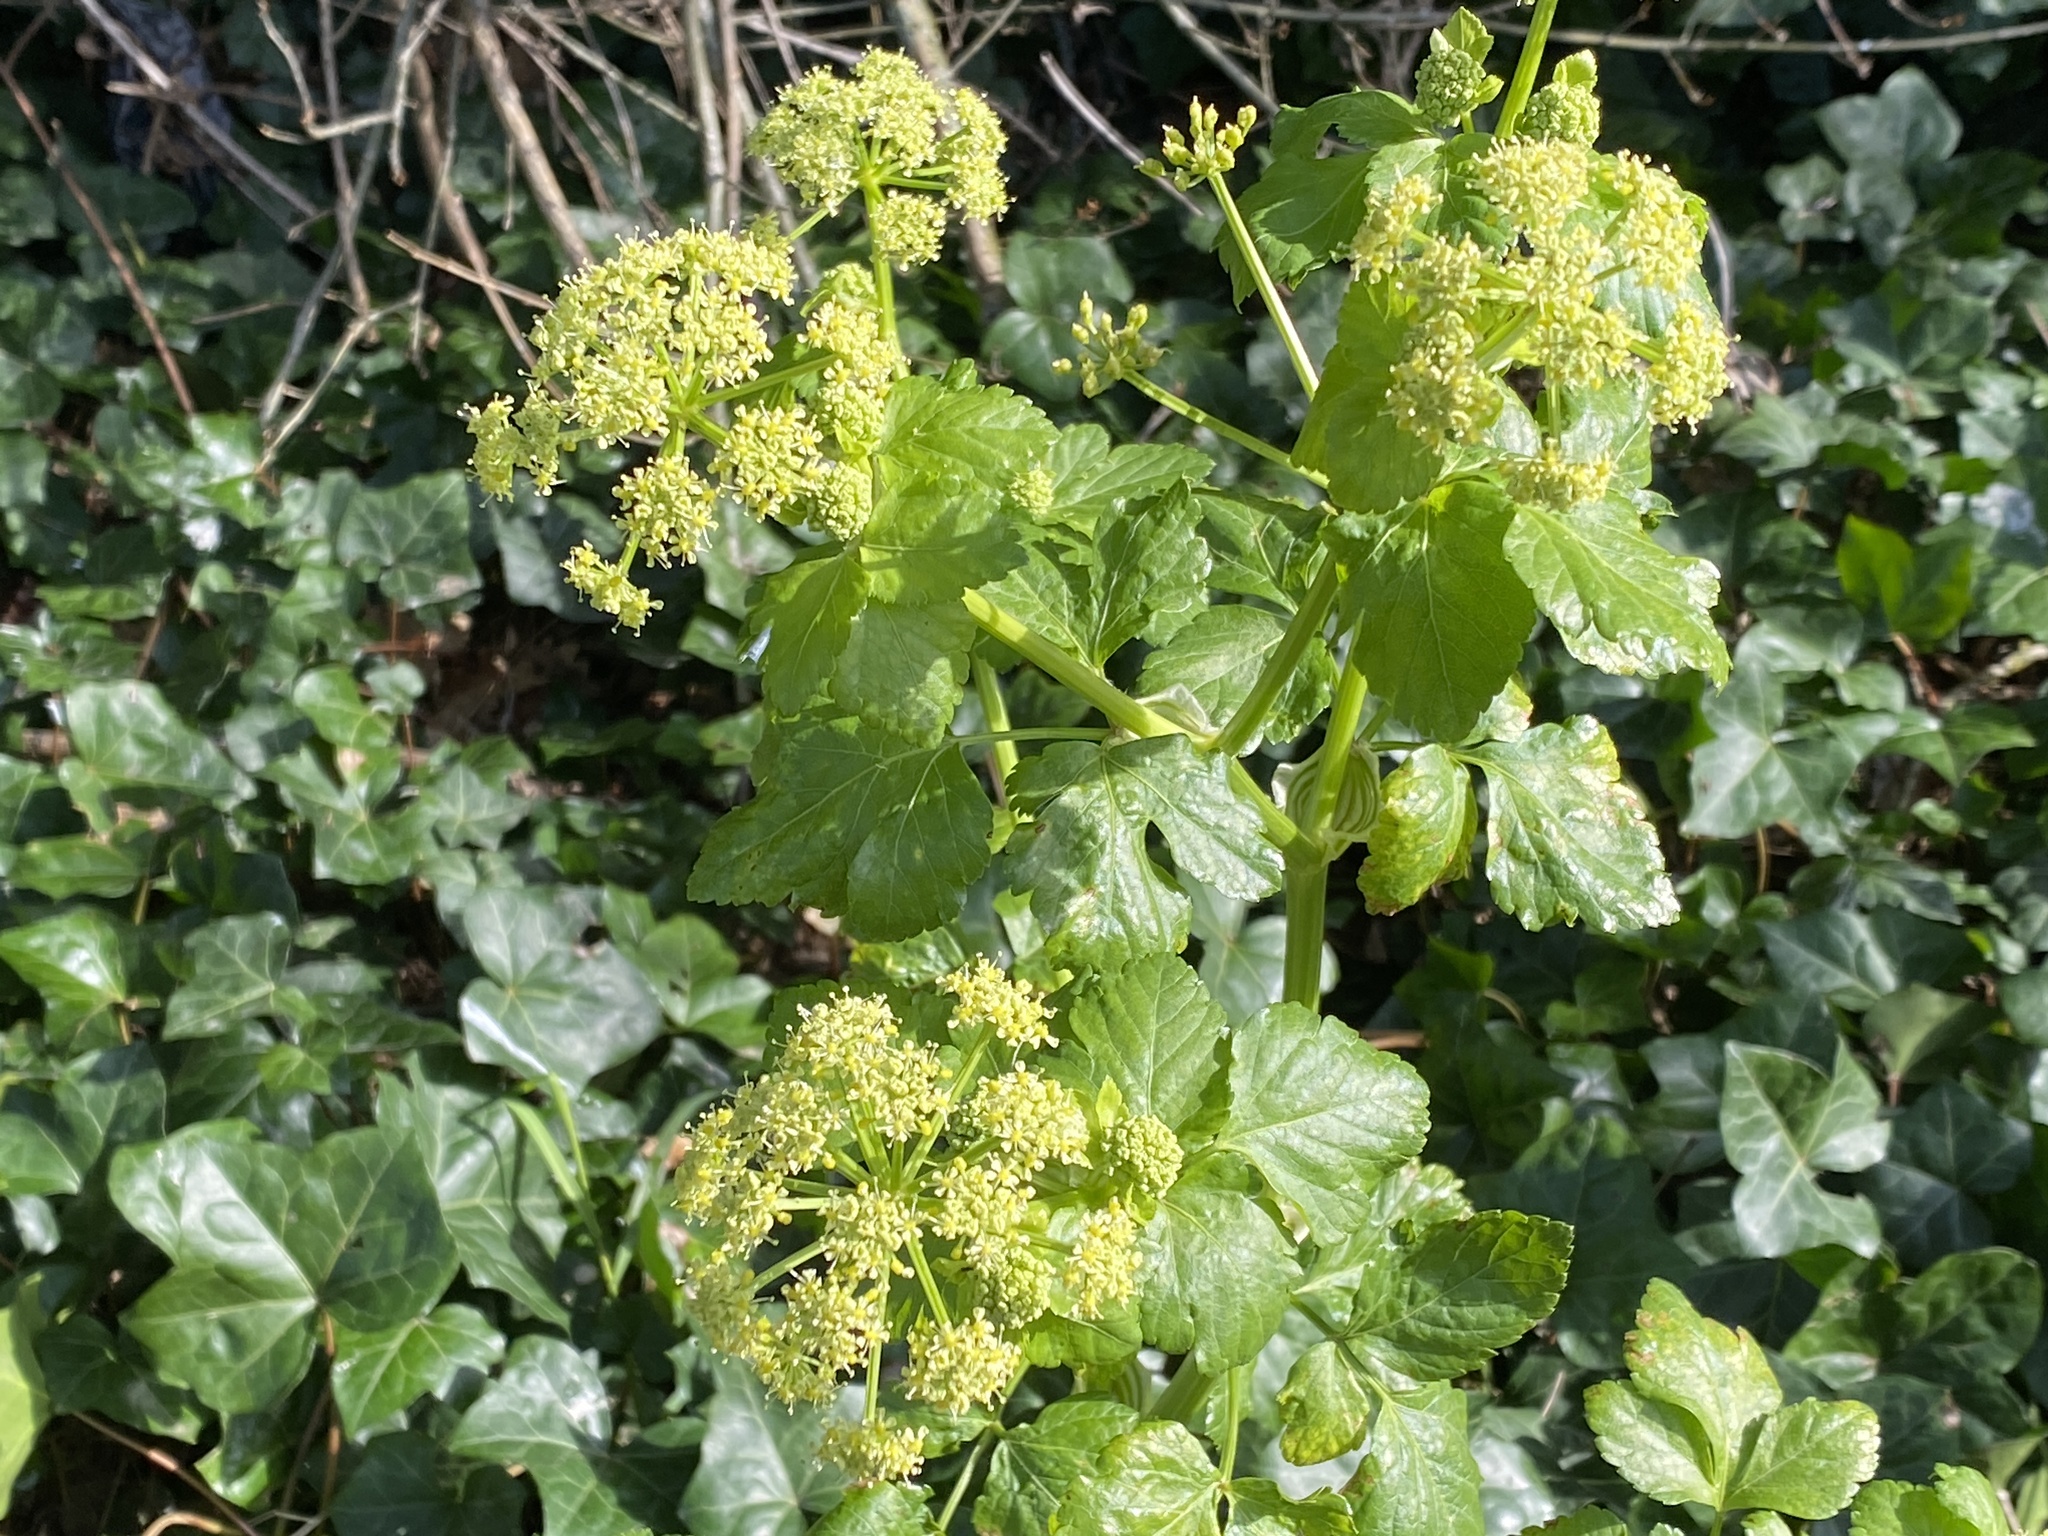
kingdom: Plantae
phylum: Tracheophyta
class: Magnoliopsida
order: Apiales
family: Apiaceae
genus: Smyrnium
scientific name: Smyrnium olusatrum
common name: Alexanders
